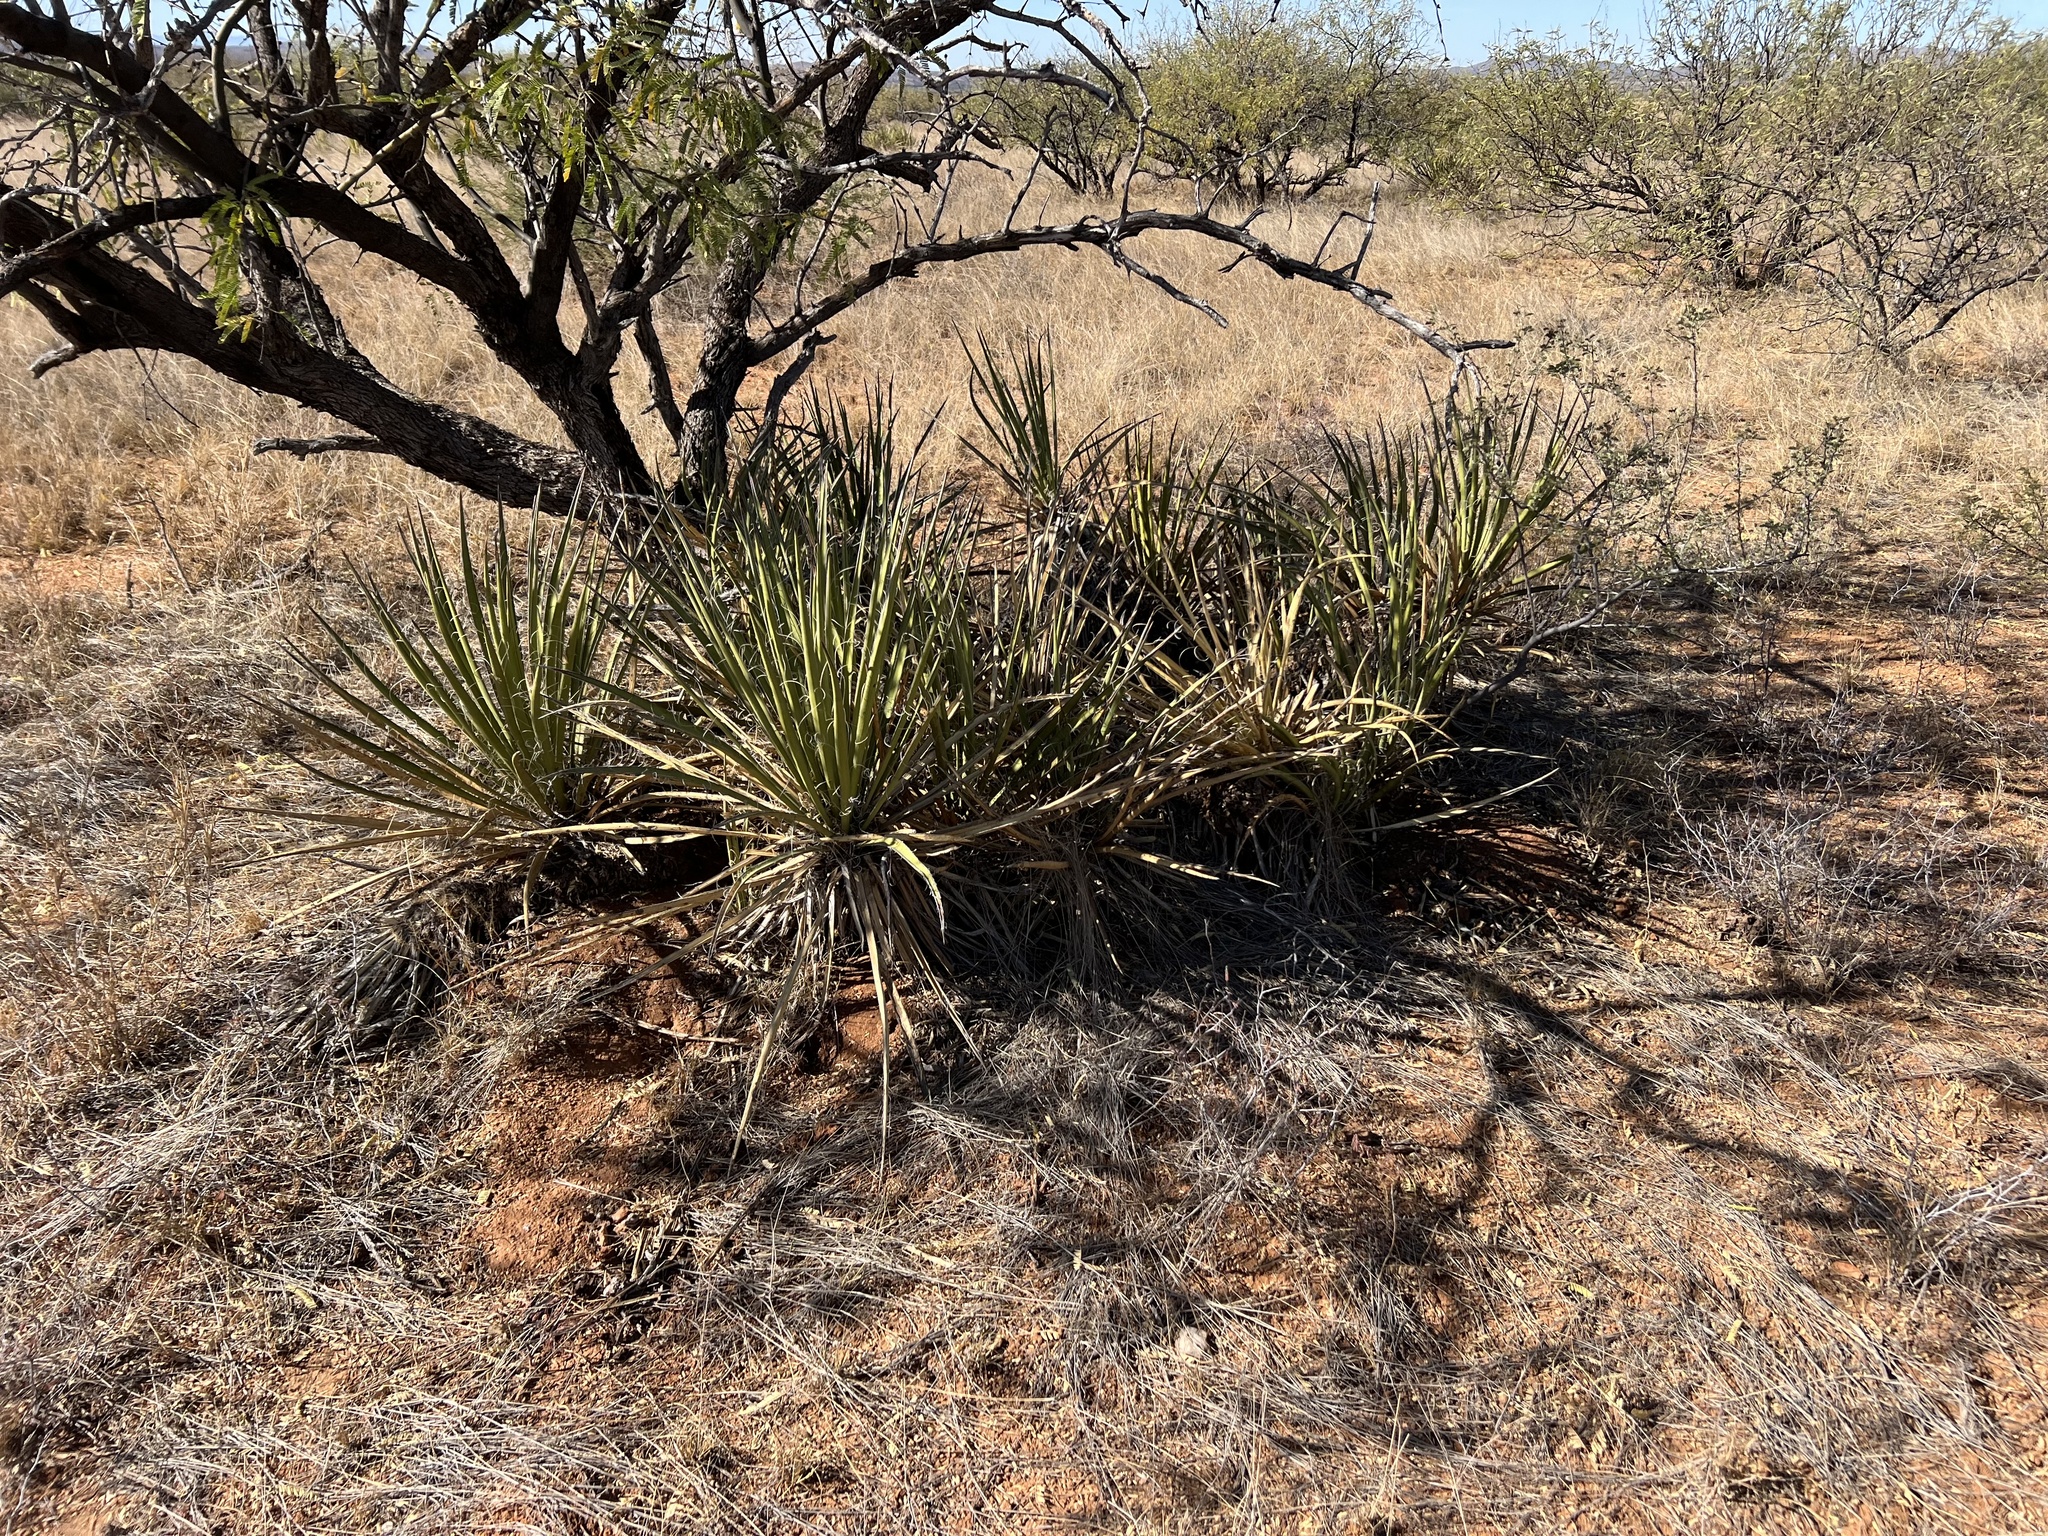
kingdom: Plantae
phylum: Tracheophyta
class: Liliopsida
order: Asparagales
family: Asparagaceae
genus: Yucca
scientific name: Yucca baccata
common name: Banana yucca
